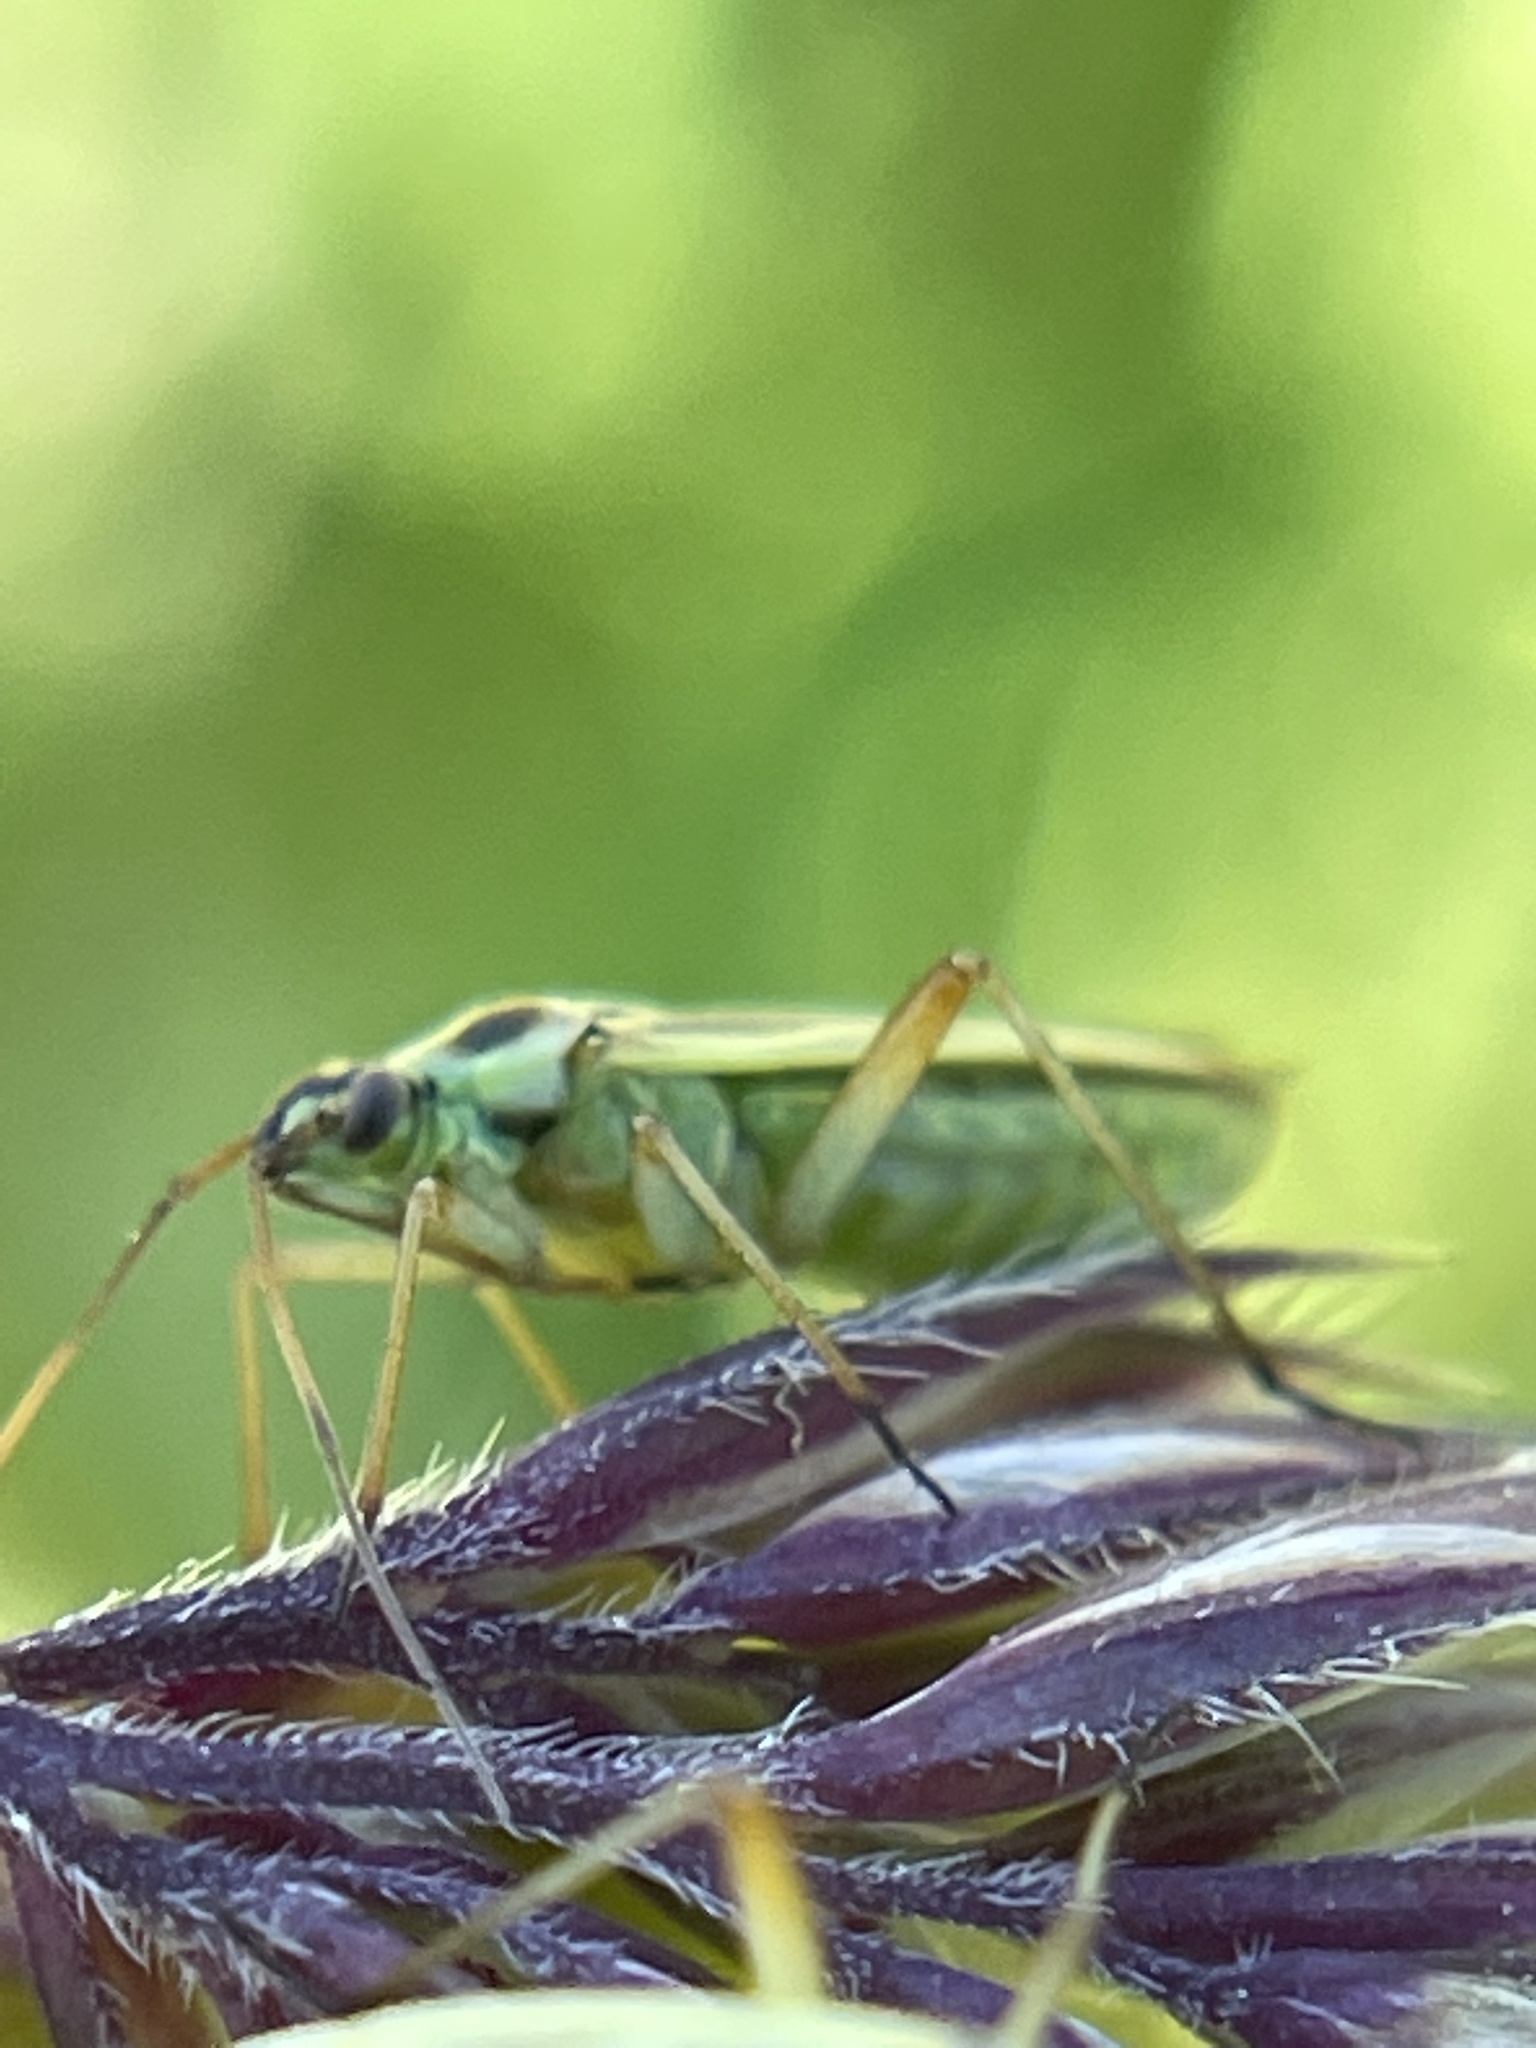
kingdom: Animalia
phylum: Arthropoda
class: Insecta
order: Hemiptera
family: Miridae
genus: Stenotus
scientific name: Stenotus binotatus
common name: Plant bug
